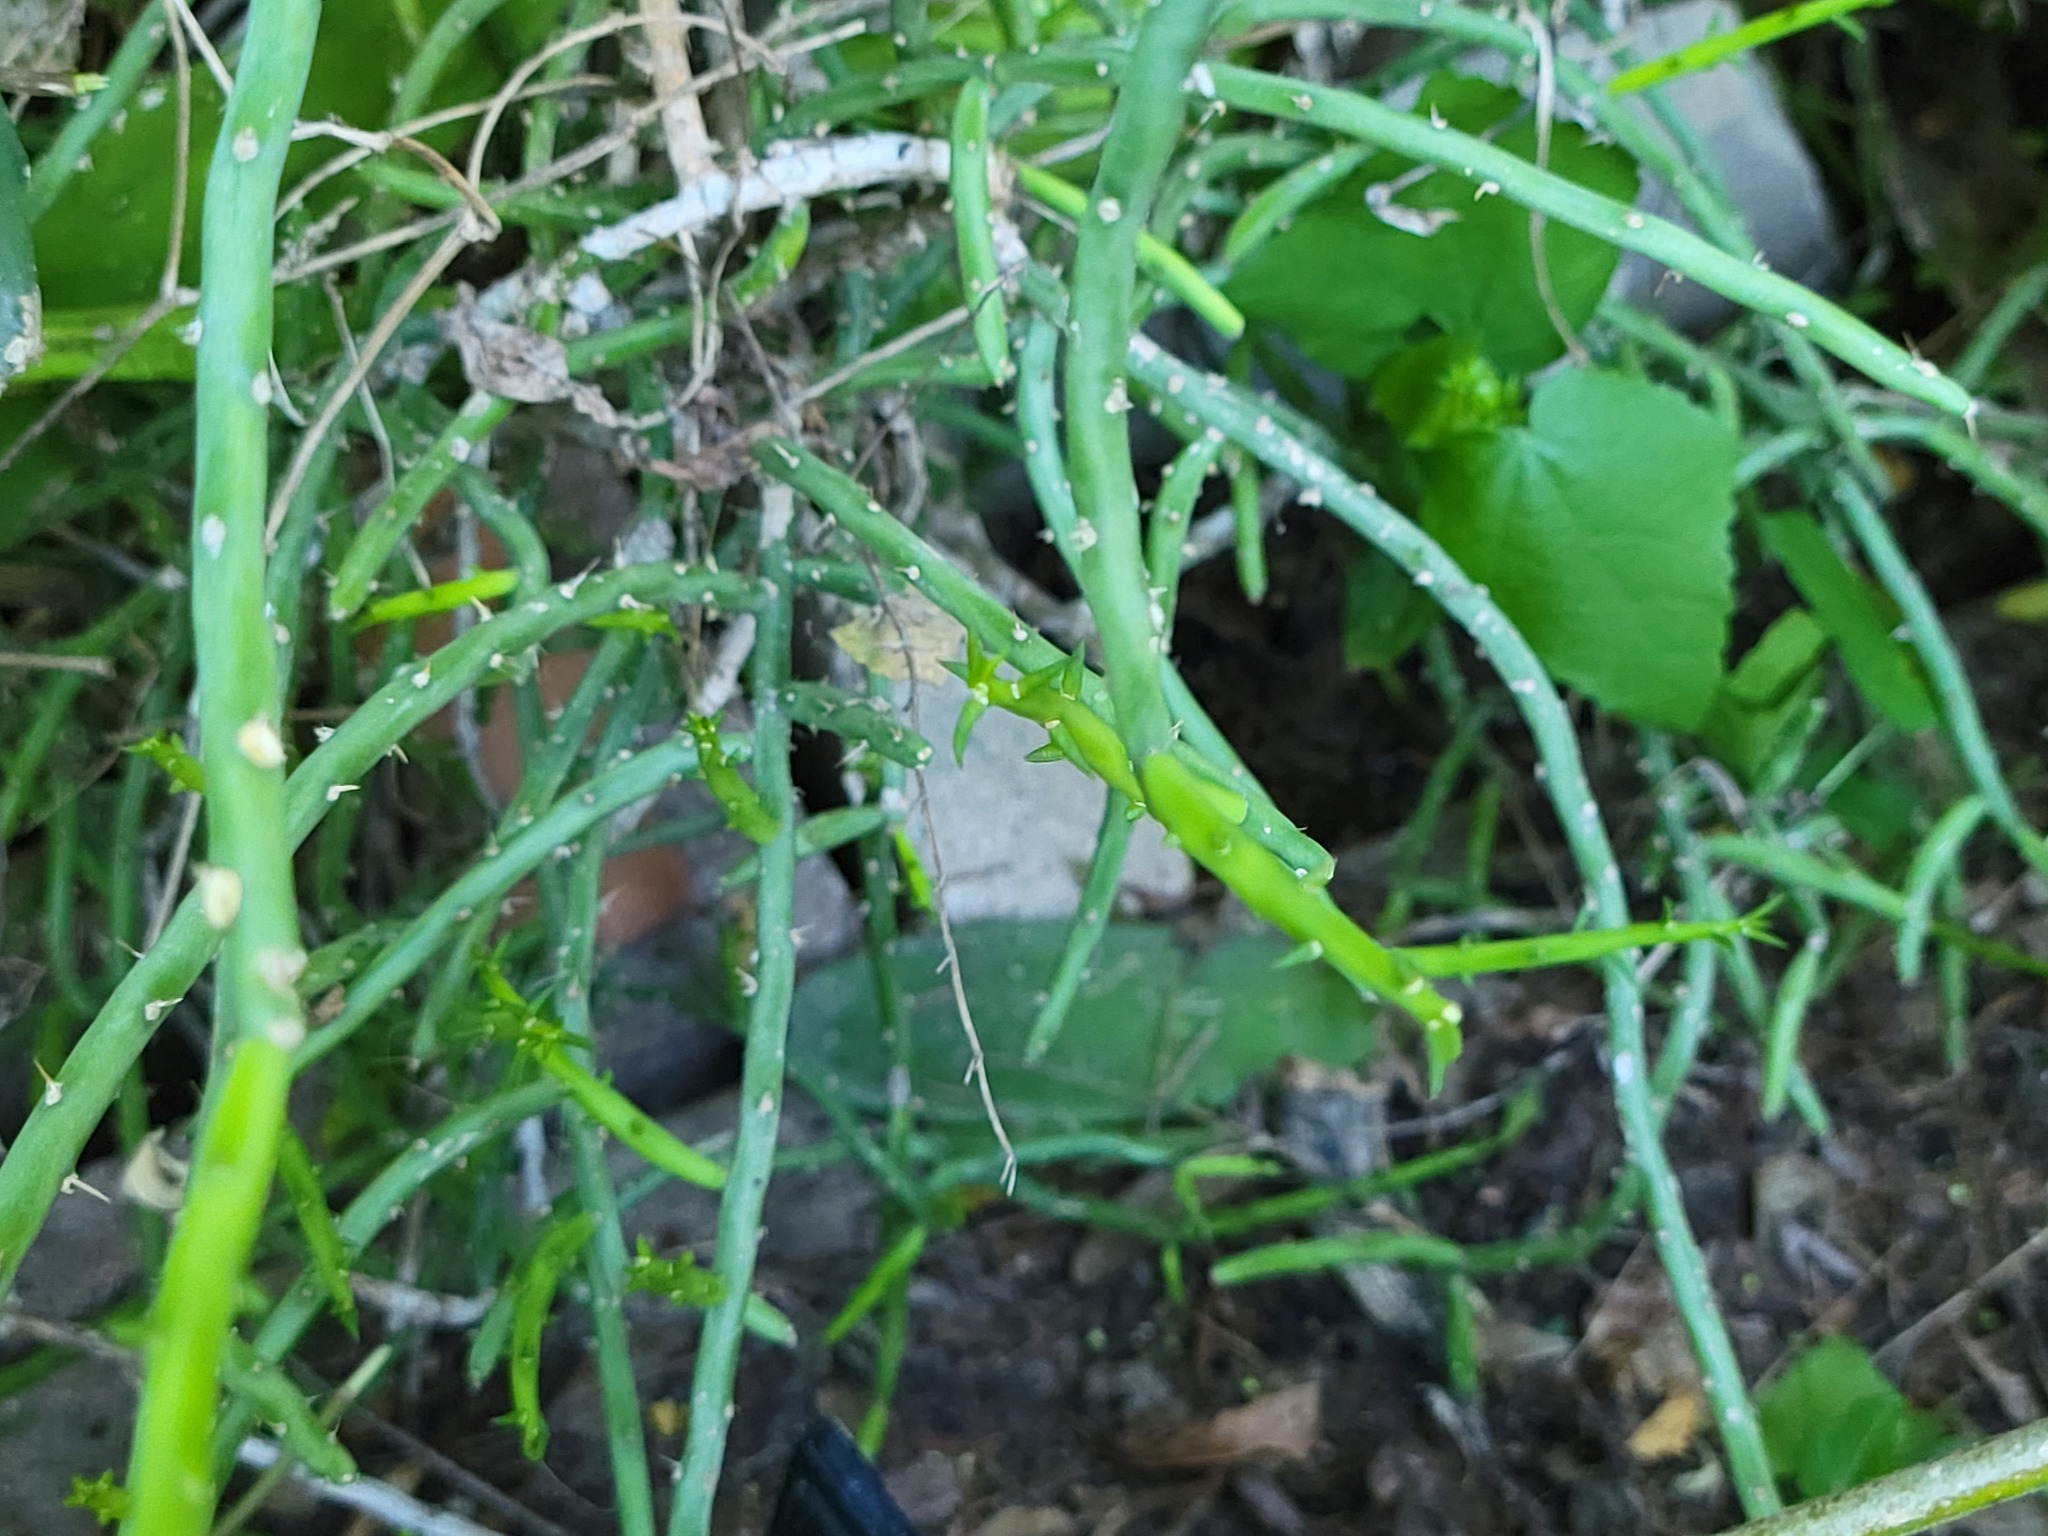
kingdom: Plantae
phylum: Tracheophyta
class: Magnoliopsida
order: Caryophyllales
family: Cactaceae
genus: Cylindropuntia
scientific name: Cylindropuntia leptocaulis
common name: Christmas cactus
